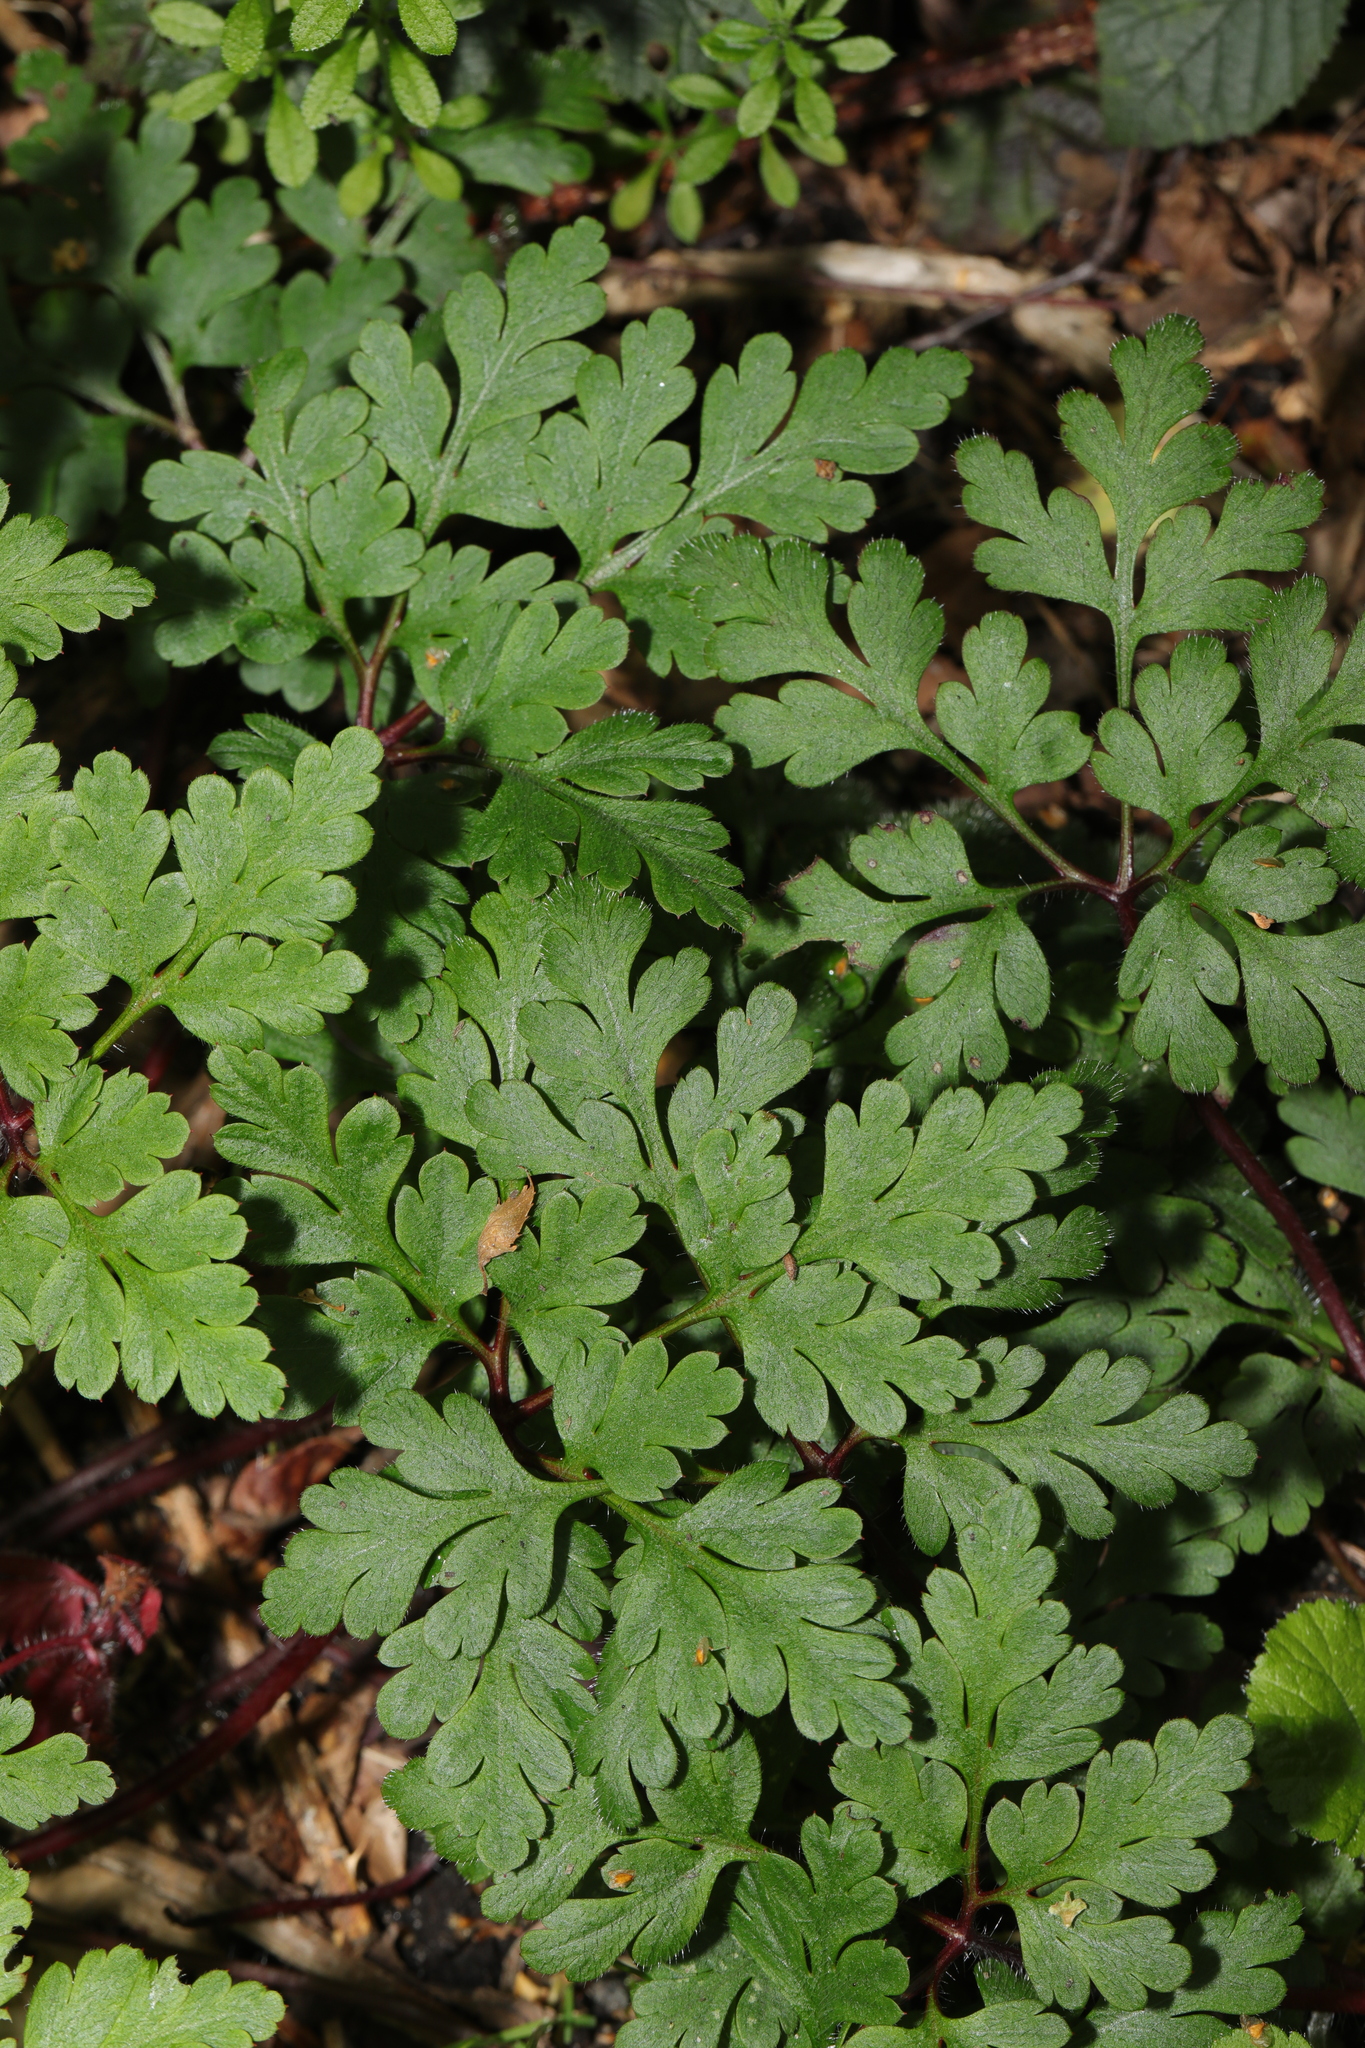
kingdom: Plantae
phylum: Tracheophyta
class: Magnoliopsida
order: Geraniales
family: Geraniaceae
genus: Geranium
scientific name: Geranium robertianum
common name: Herb-robert
